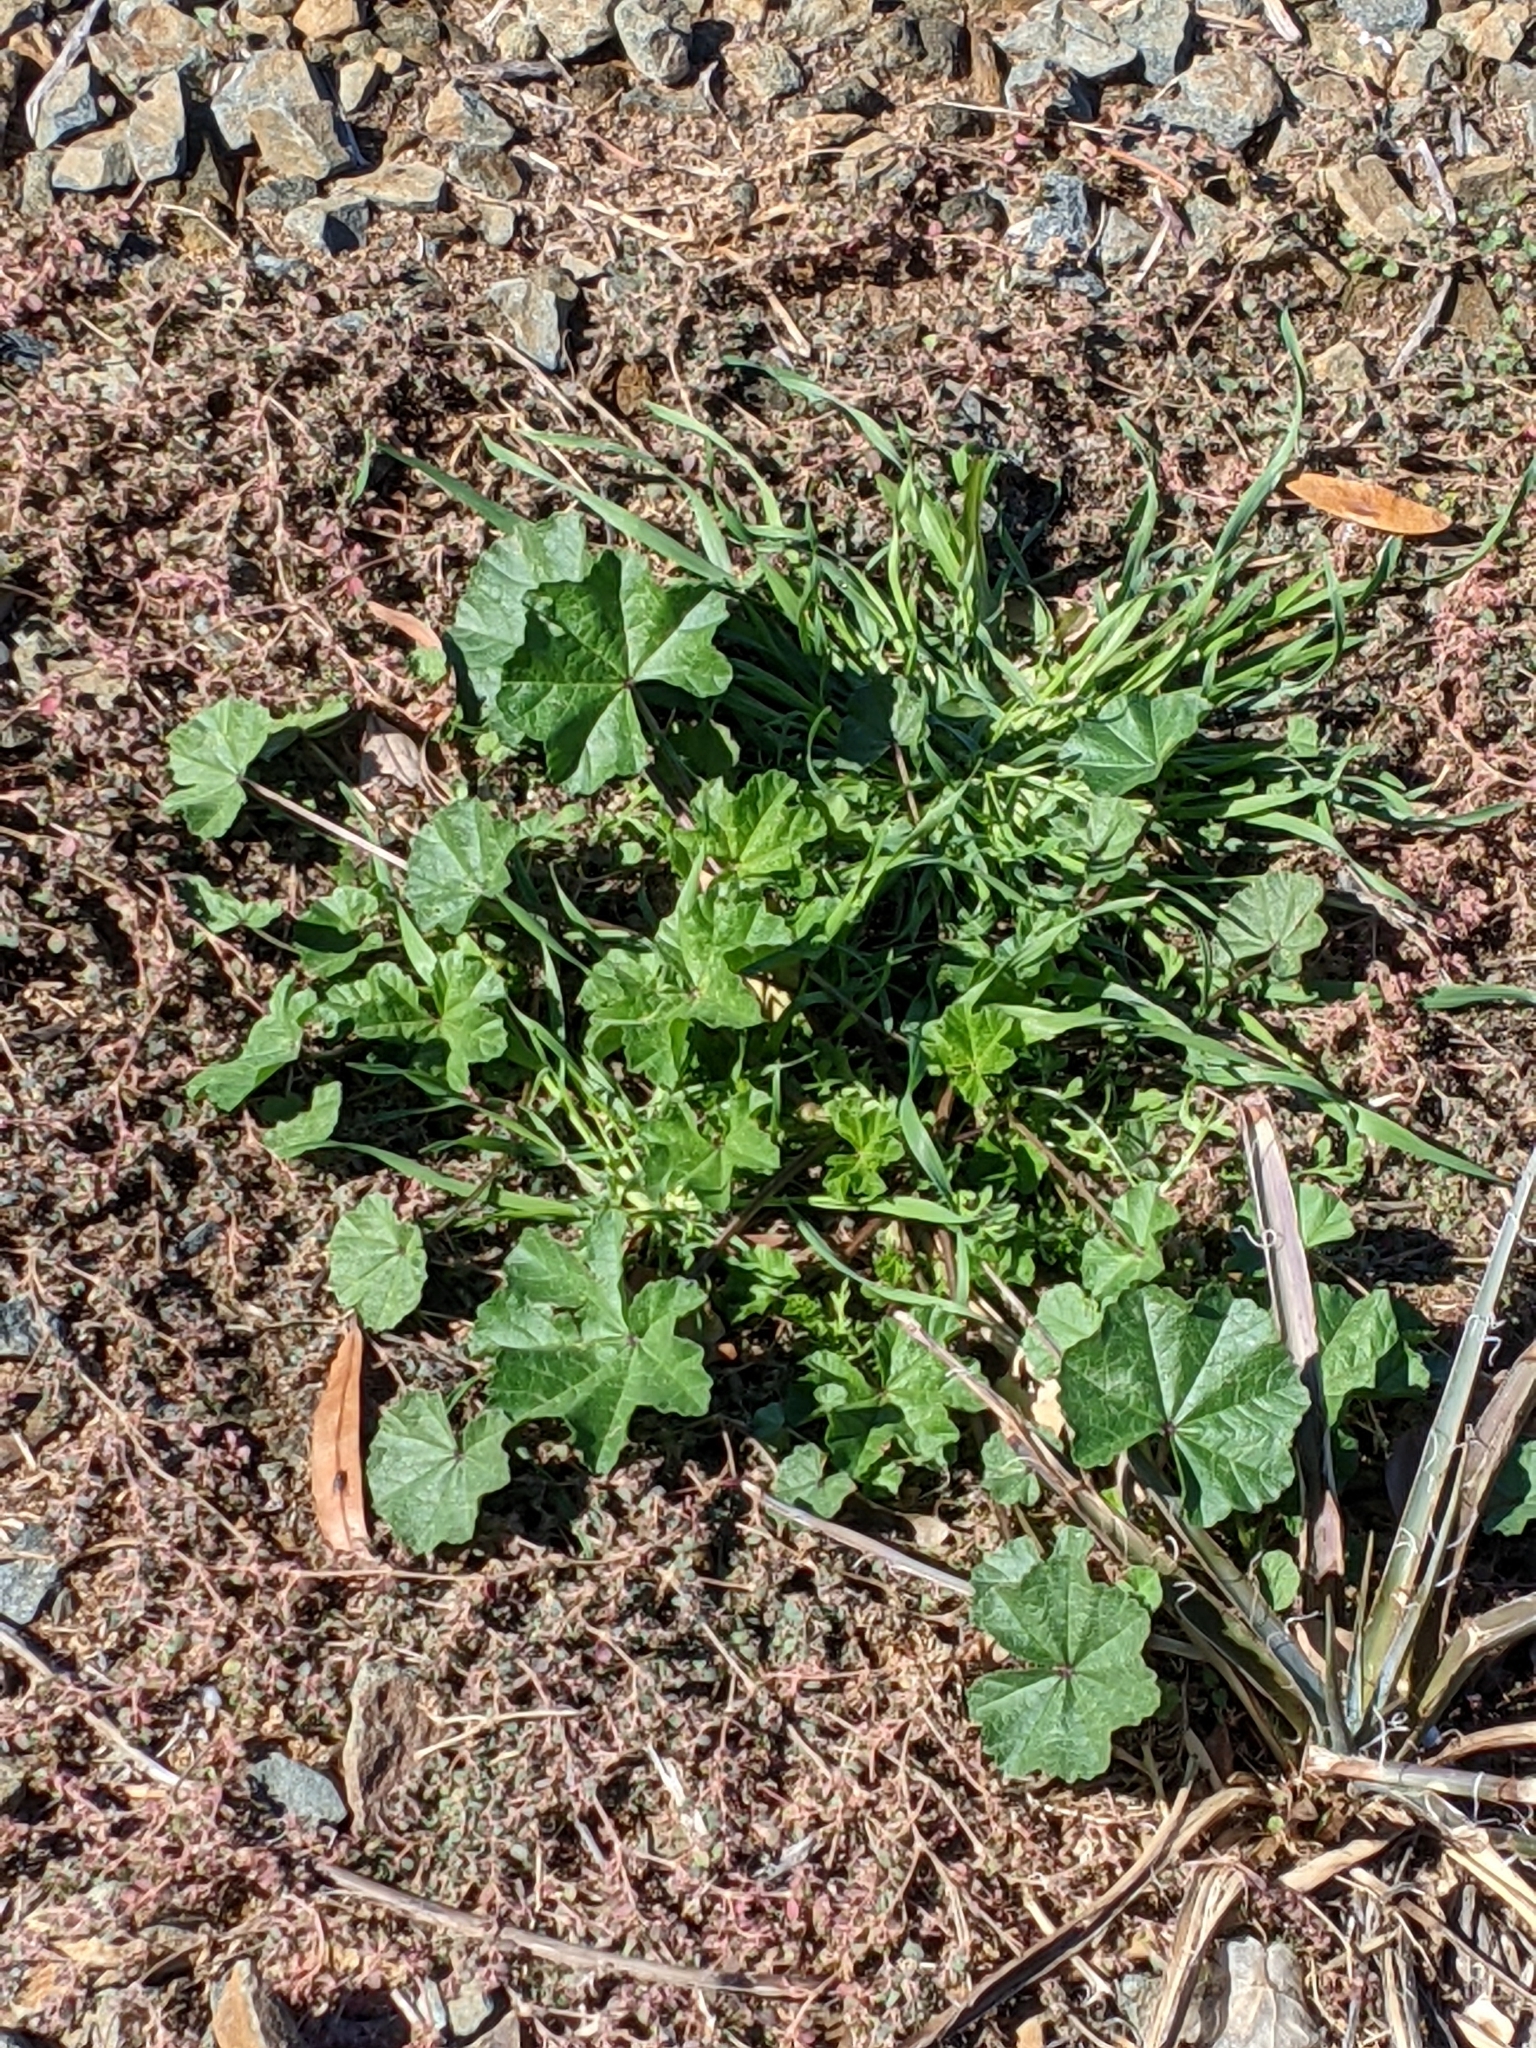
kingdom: Plantae
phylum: Tracheophyta
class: Magnoliopsida
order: Malvales
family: Malvaceae
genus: Malva
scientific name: Malva parviflora
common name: Least mallow
